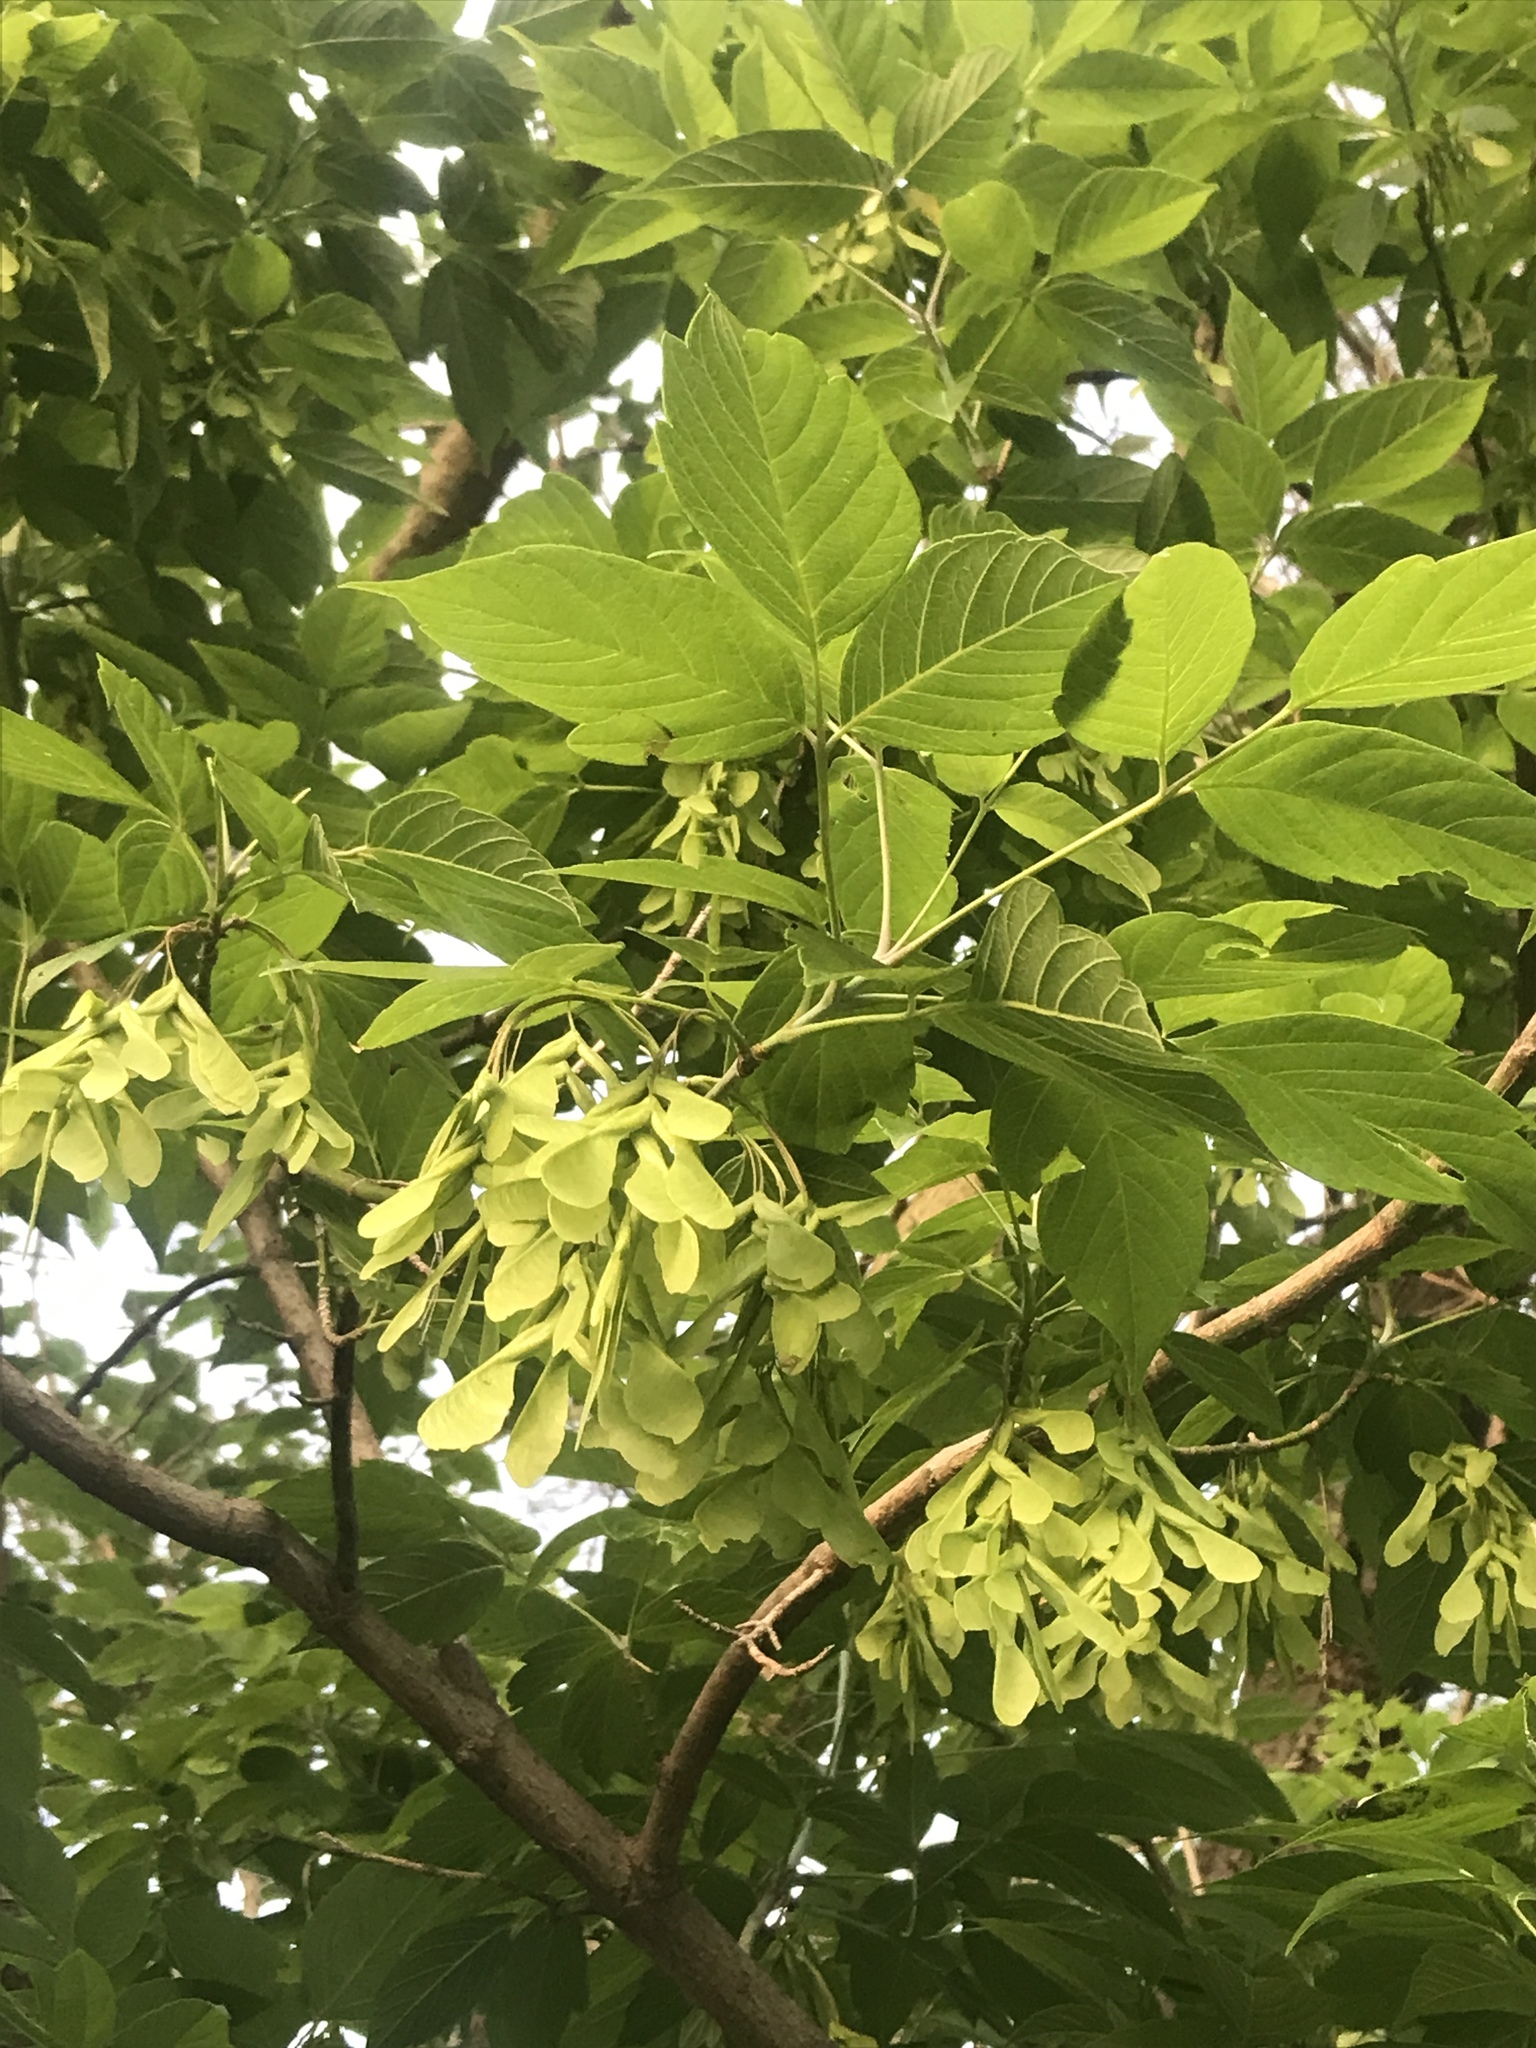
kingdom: Plantae
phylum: Tracheophyta
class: Magnoliopsida
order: Sapindales
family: Sapindaceae
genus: Acer
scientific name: Acer negundo
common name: Ashleaf maple
